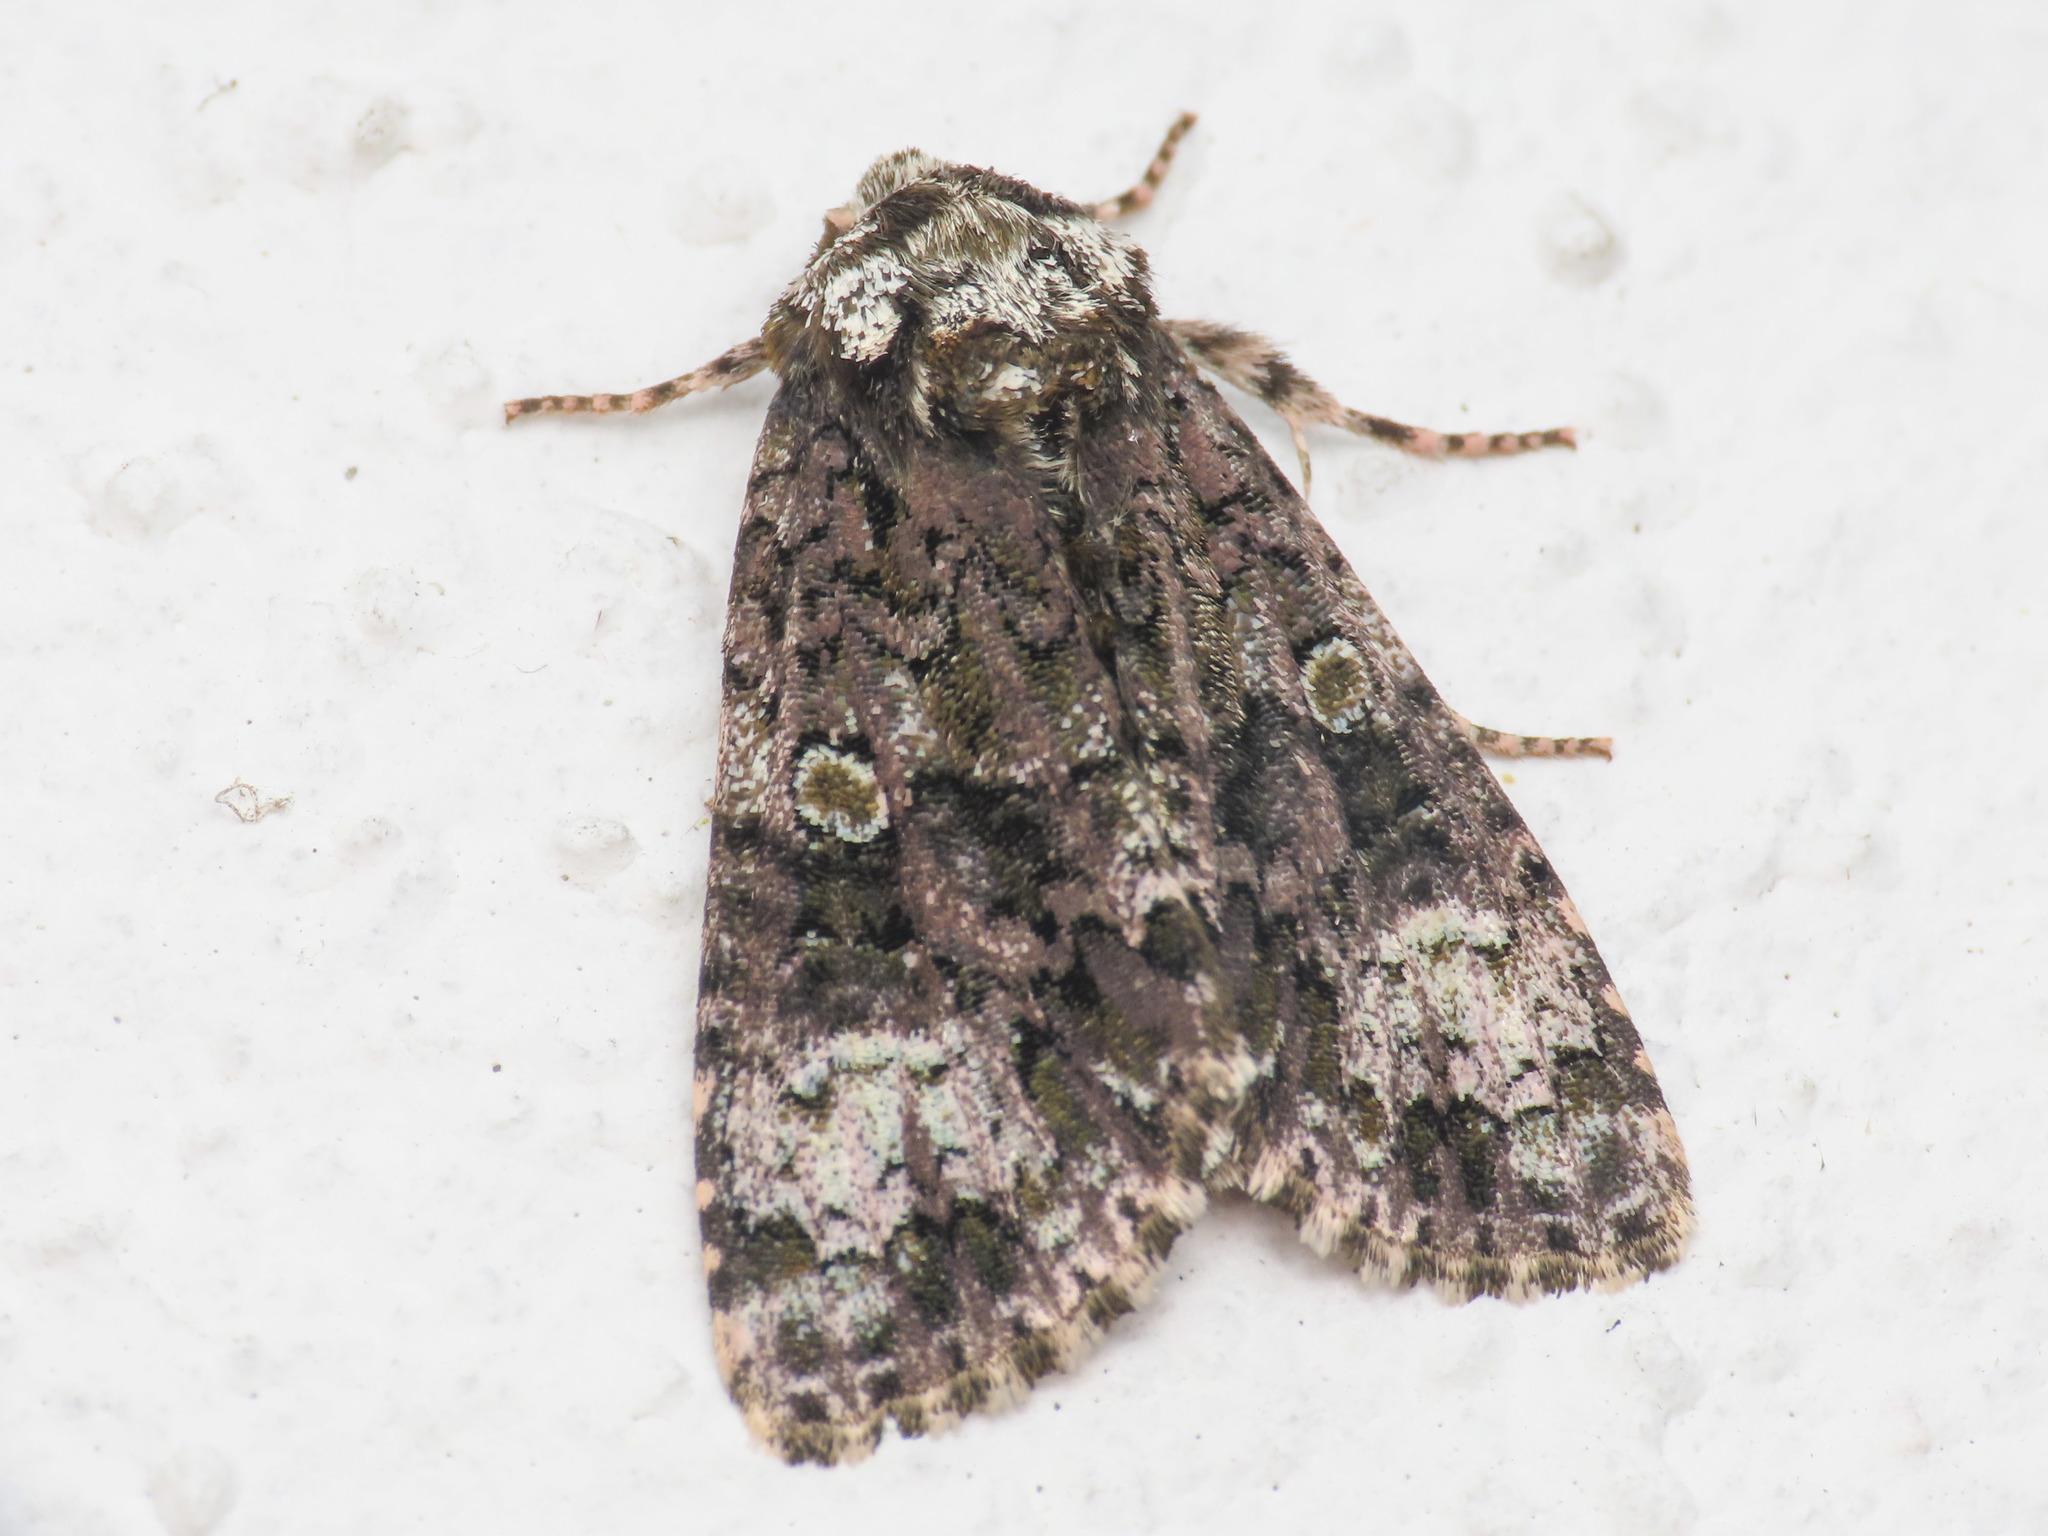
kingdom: Animalia
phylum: Arthropoda
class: Insecta
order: Lepidoptera
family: Noctuidae
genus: Craniophora
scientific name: Craniophora ligustri
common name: Coronet
